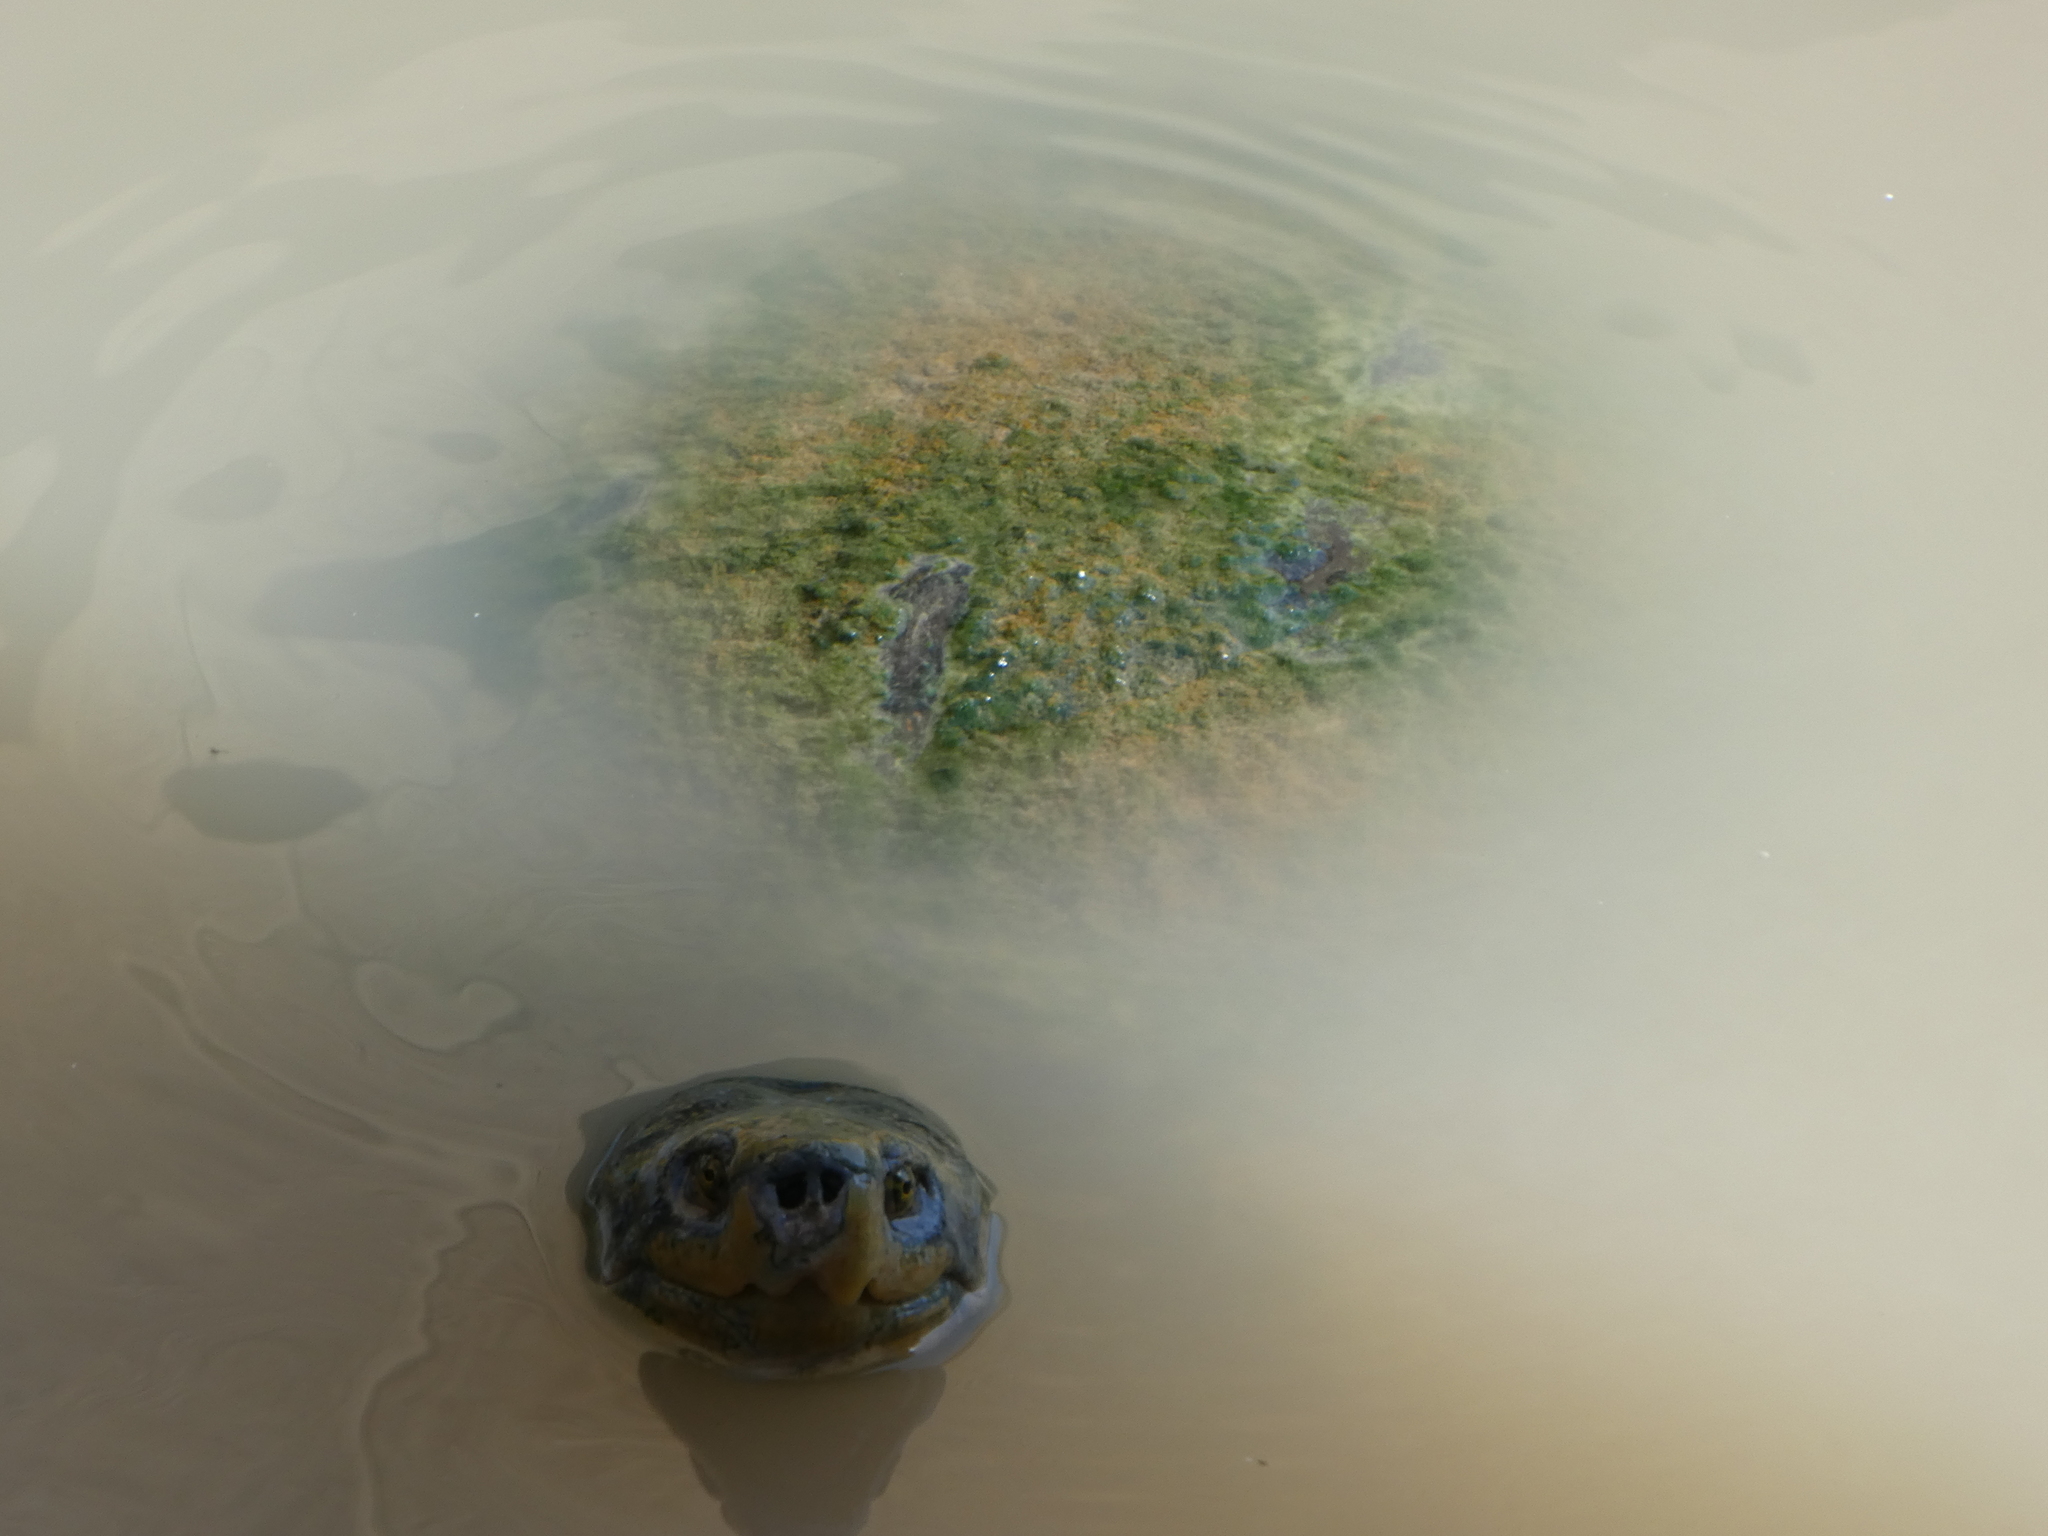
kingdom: Animalia
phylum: Chordata
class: Testudines
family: Geoemydidae
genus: Heosemys
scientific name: Heosemys annandalii
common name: Yellow-headed temple turtle
